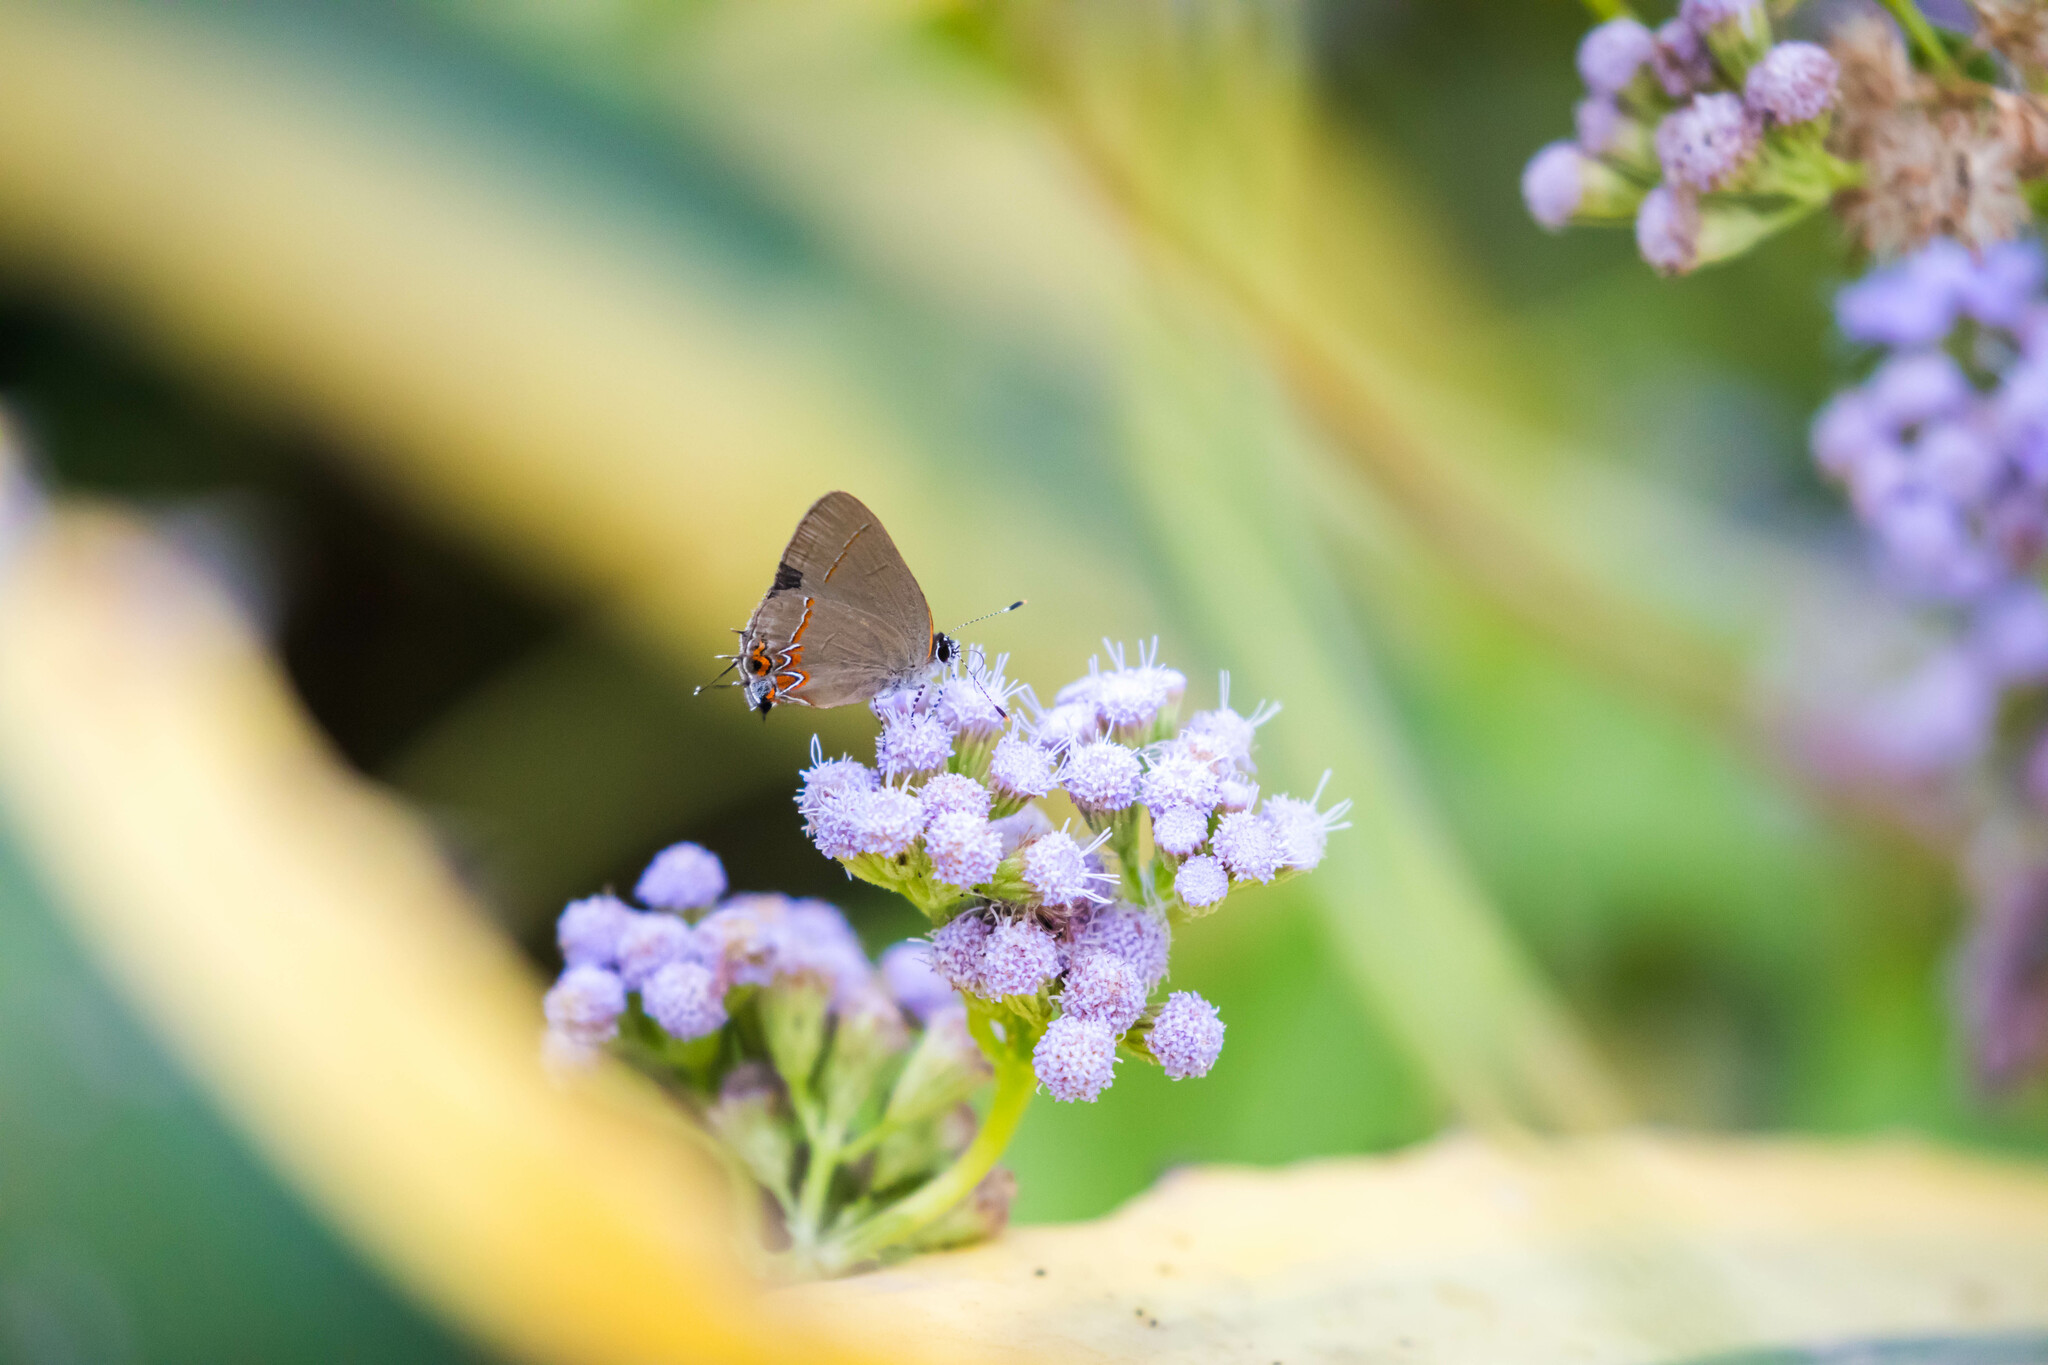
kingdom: Animalia
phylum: Arthropoda
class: Insecta
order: Lepidoptera
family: Lycaenidae
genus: Calycopis
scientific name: Calycopis isobeon
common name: Dusky-blue groundstreak
